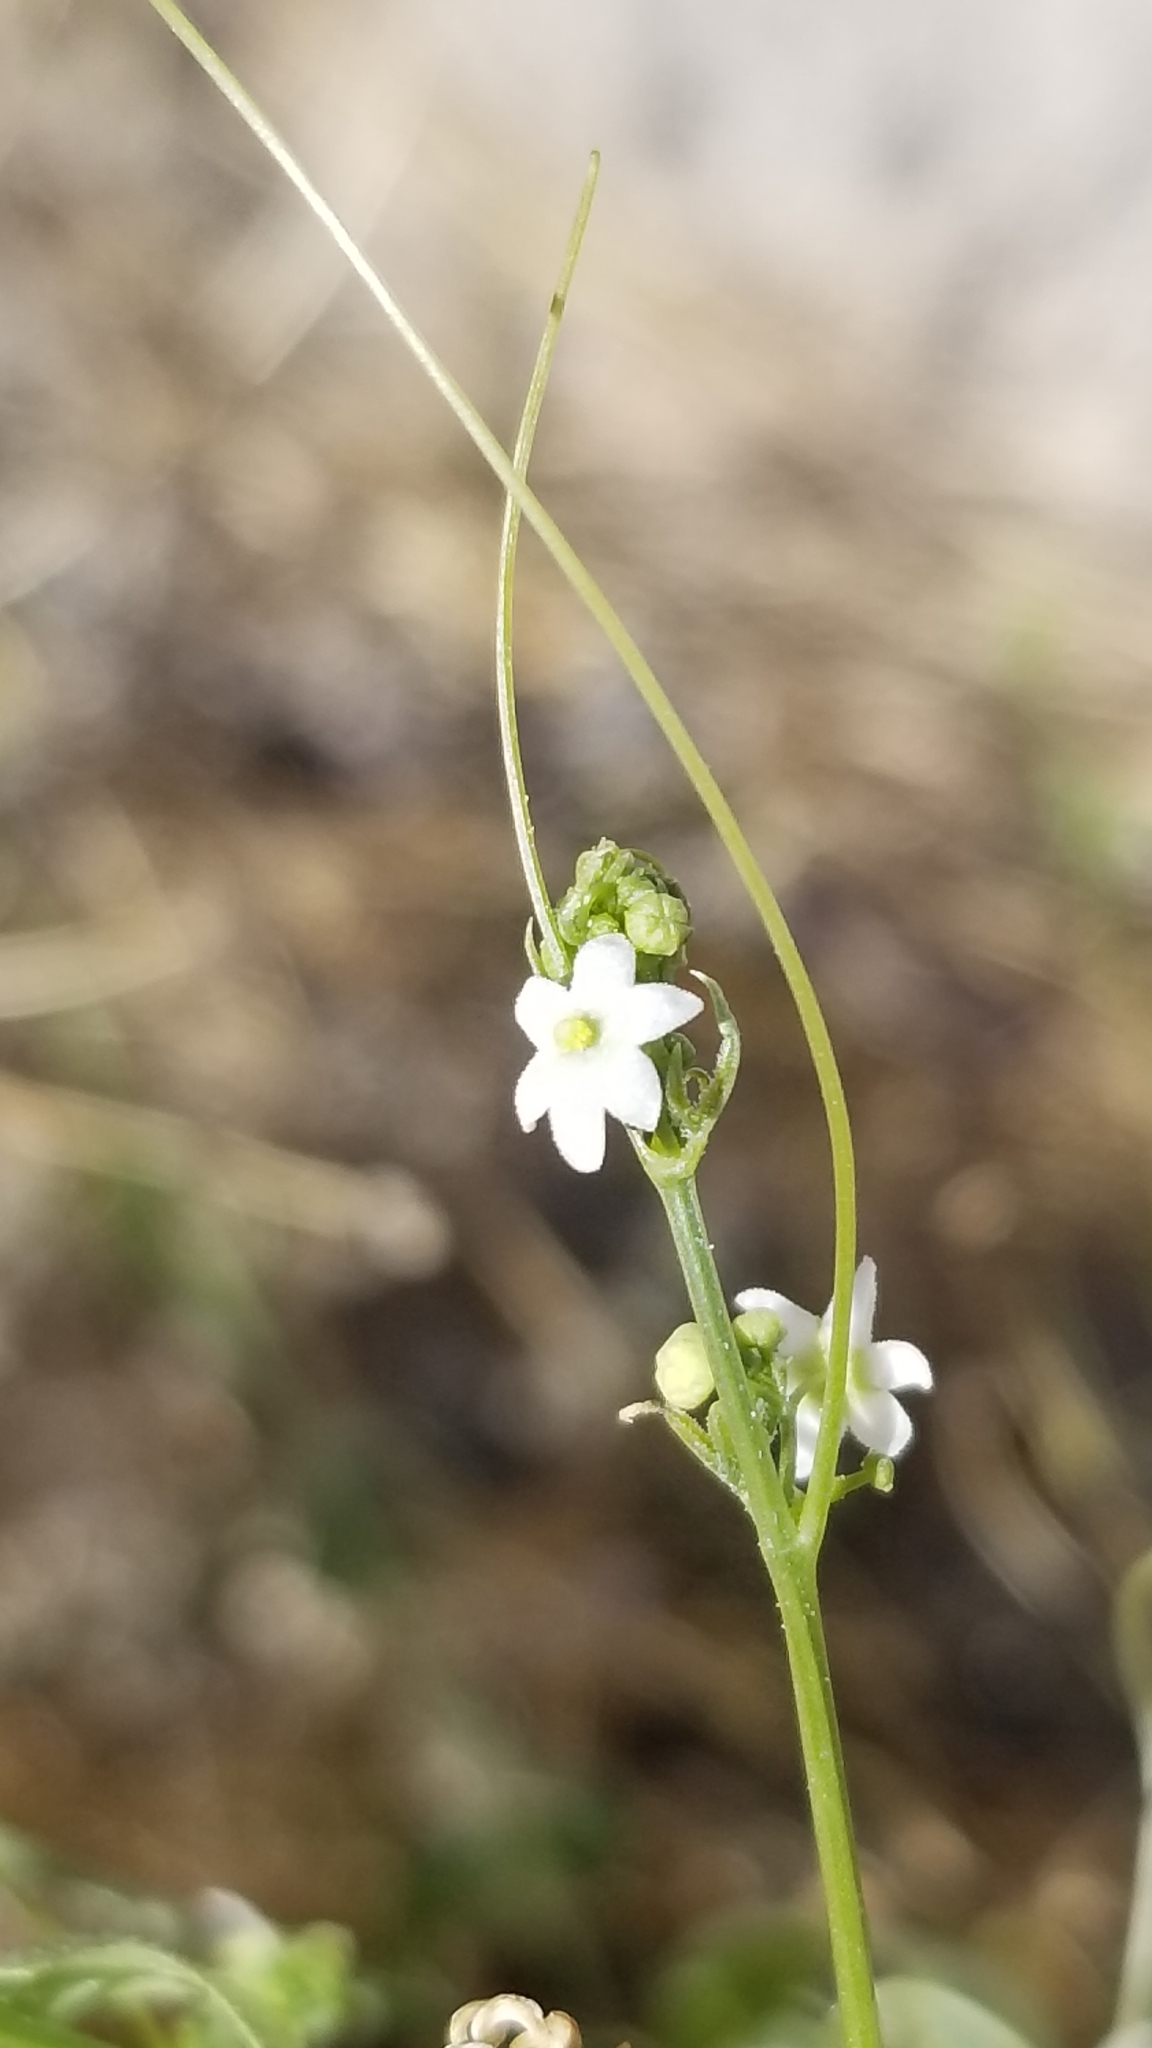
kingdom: Plantae
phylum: Tracheophyta
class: Magnoliopsida
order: Cucurbitales
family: Cucurbitaceae
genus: Echinopepon
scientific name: Echinopepon bigelovii
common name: Desert starvine
